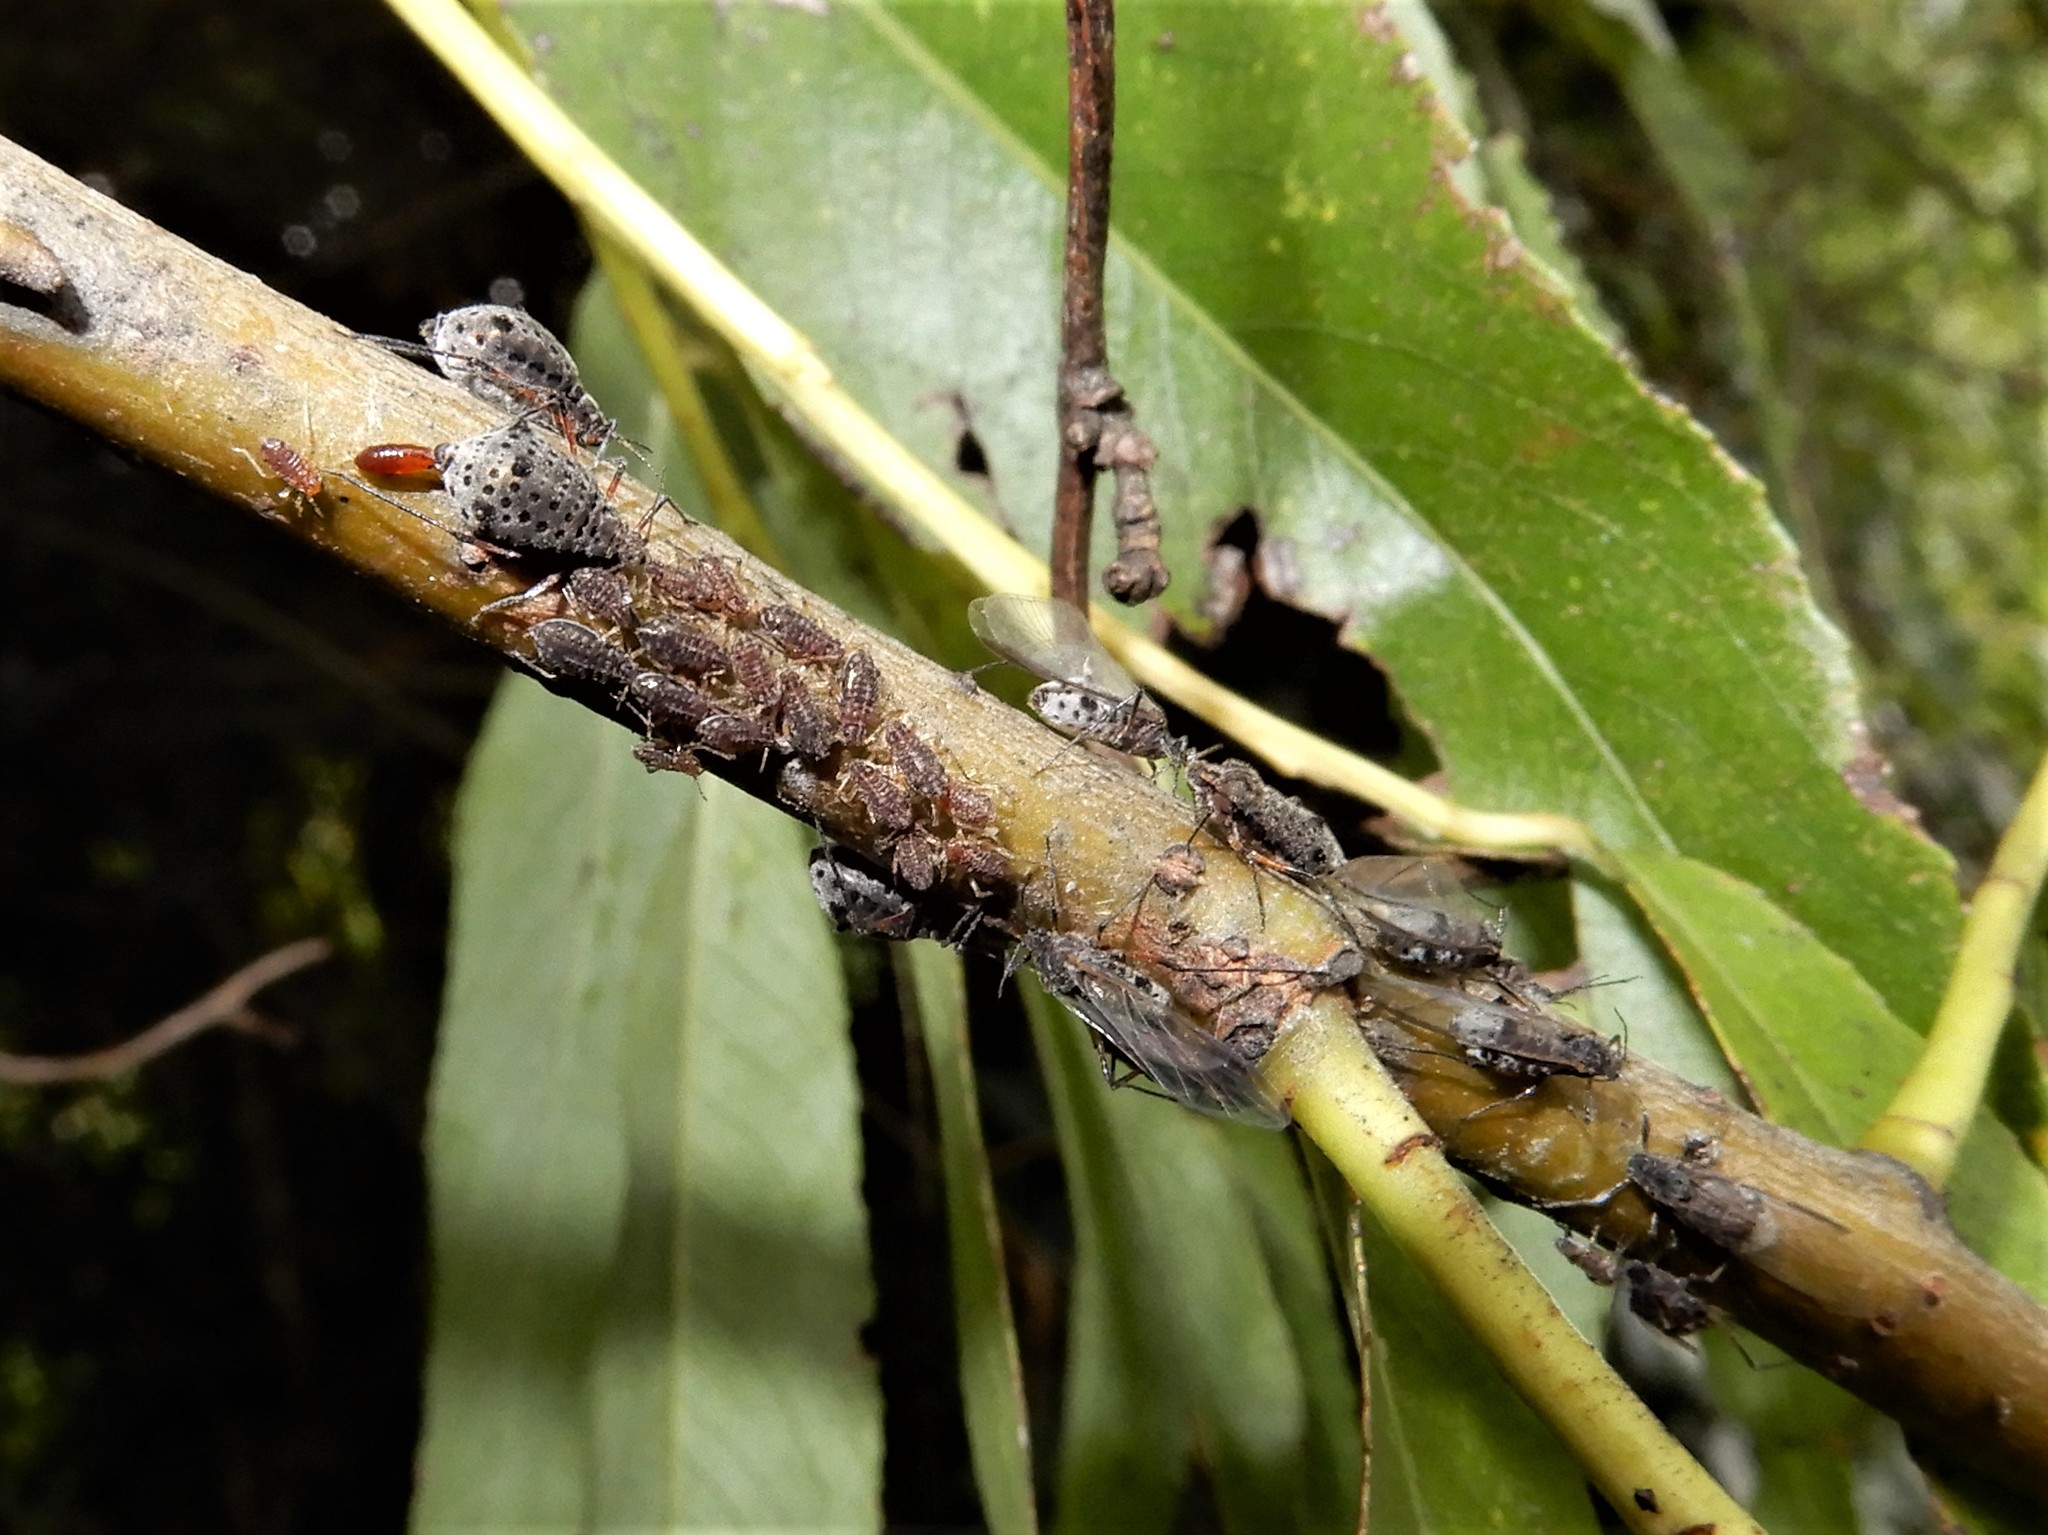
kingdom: Animalia
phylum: Arthropoda
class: Insecta
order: Hemiptera
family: Aphididae
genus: Tuberolachnus
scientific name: Tuberolachnus salignus
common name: Giant willow aphid
